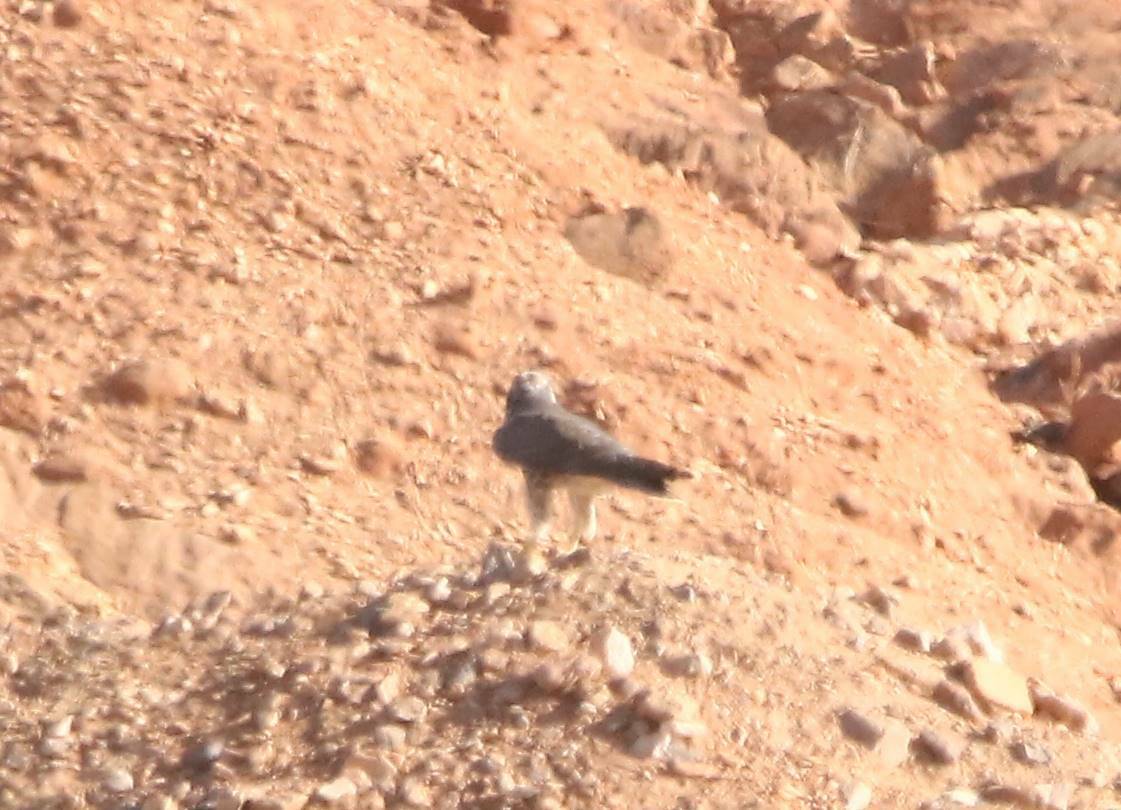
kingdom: Animalia
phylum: Chordata
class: Aves
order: Falconiformes
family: Falconidae
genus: Falco
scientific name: Falco biarmicus
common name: Lanner falcon
